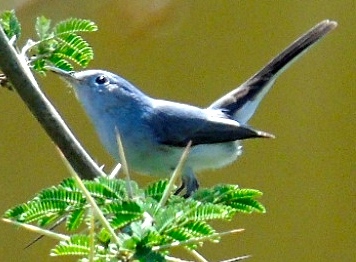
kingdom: Animalia
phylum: Chordata
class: Aves
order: Passeriformes
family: Polioptilidae
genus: Polioptila
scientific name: Polioptila caerulea
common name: Blue-gray gnatcatcher
